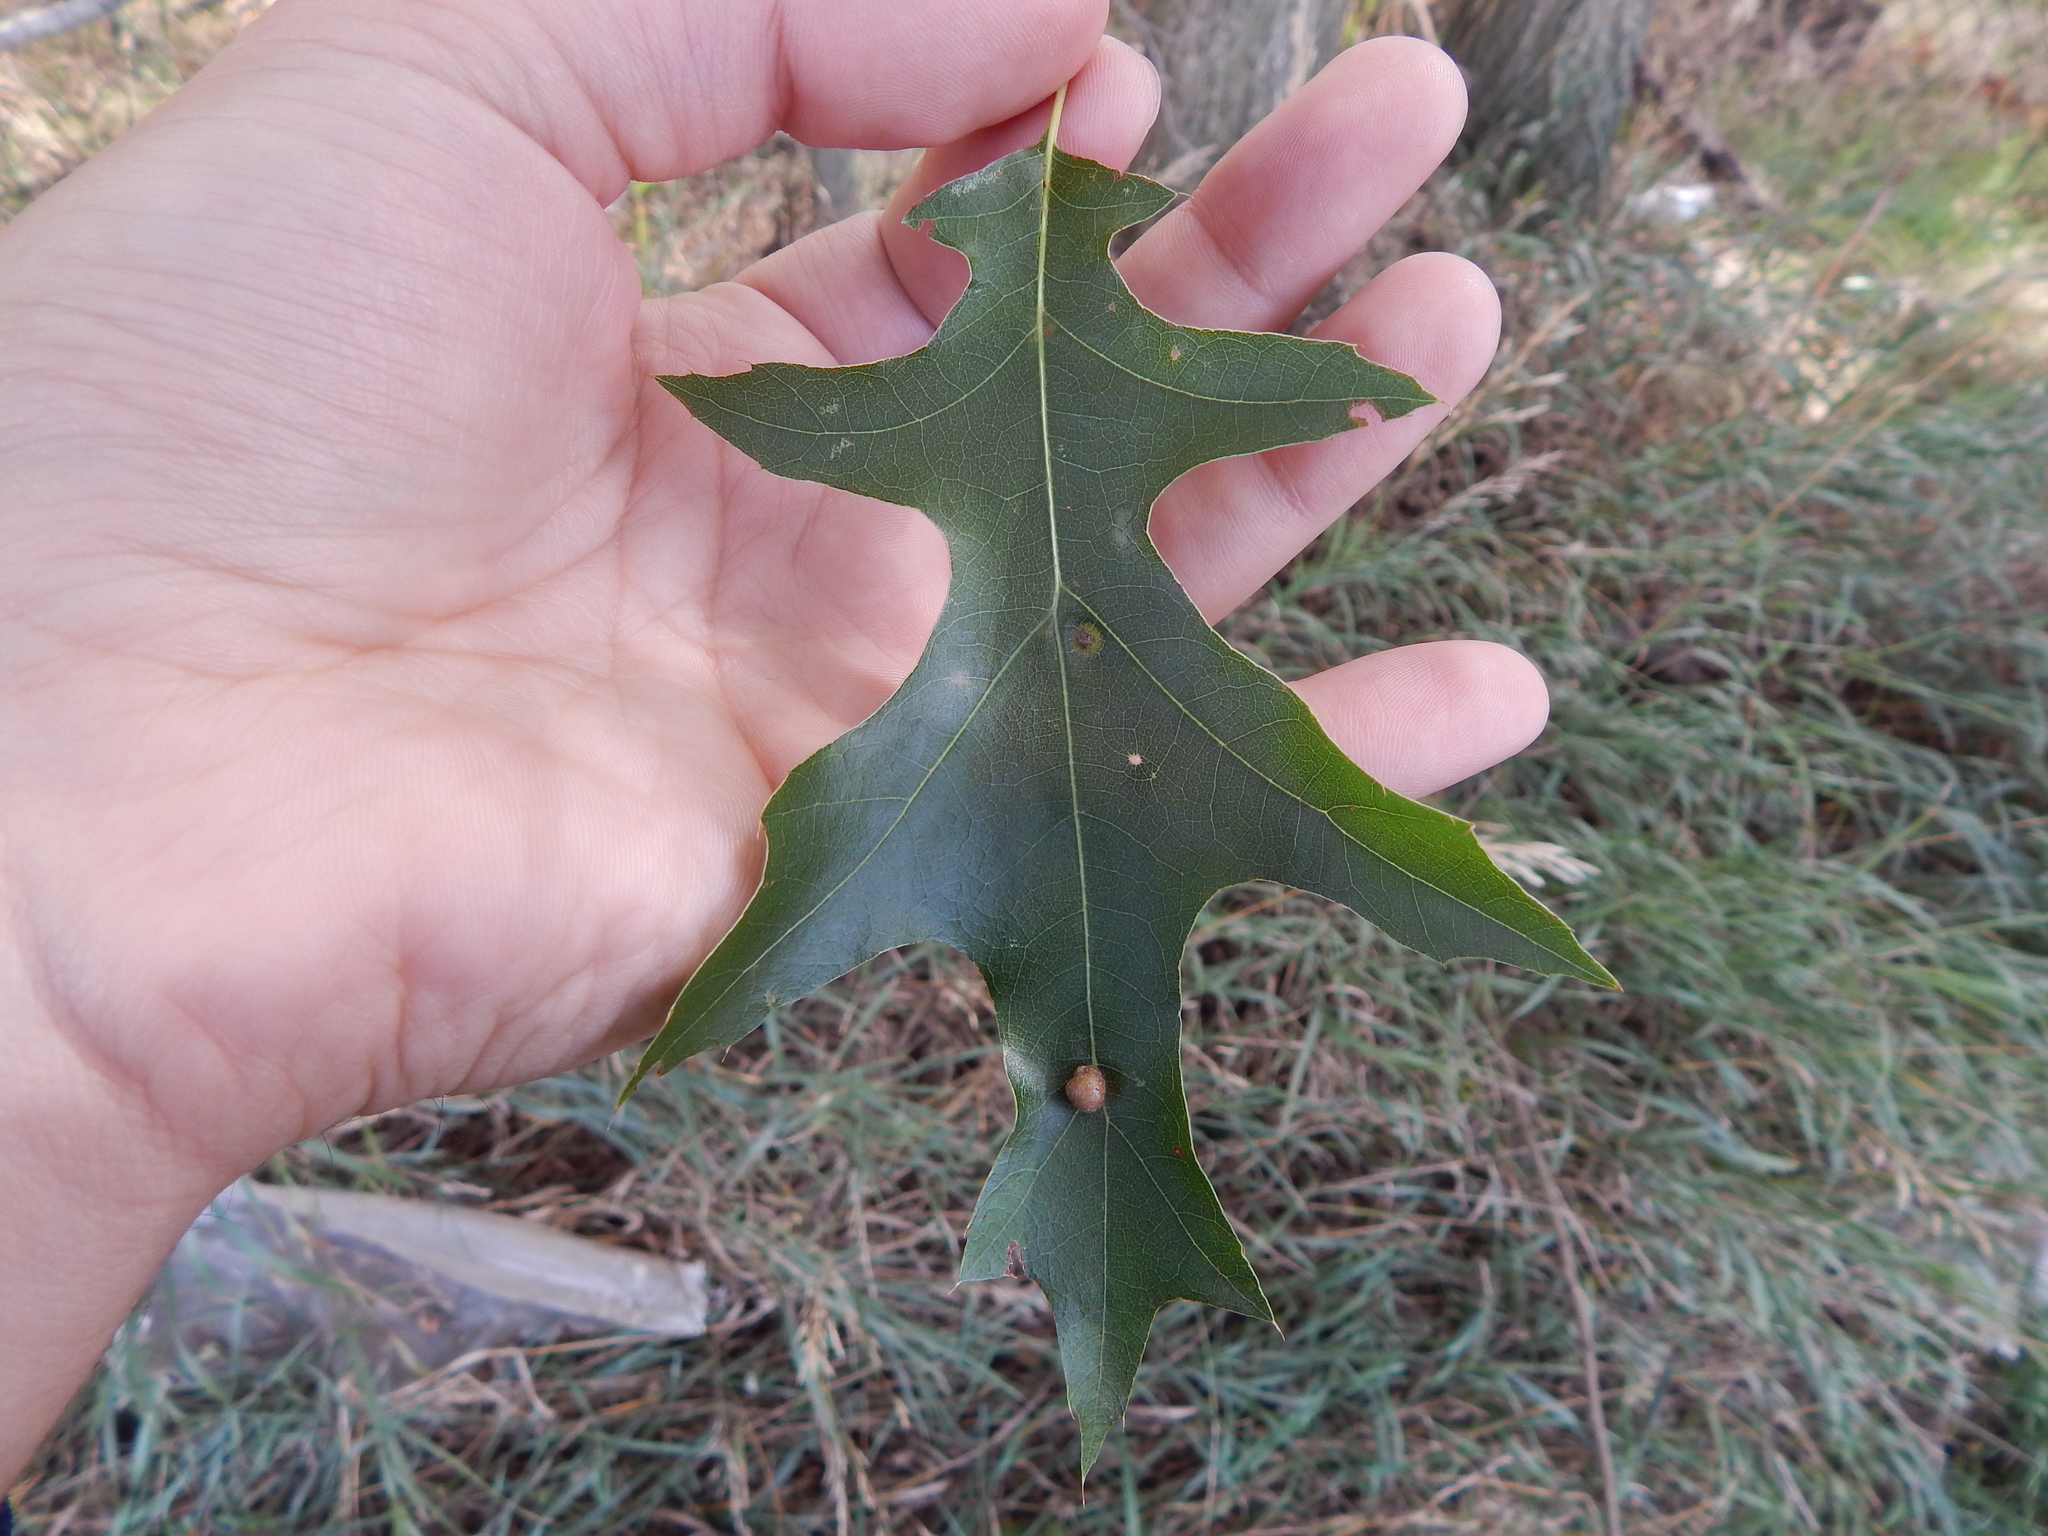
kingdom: Plantae
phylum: Tracheophyta
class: Magnoliopsida
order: Fagales
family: Fagaceae
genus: Quercus
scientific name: Quercus palustris
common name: Pin oak
